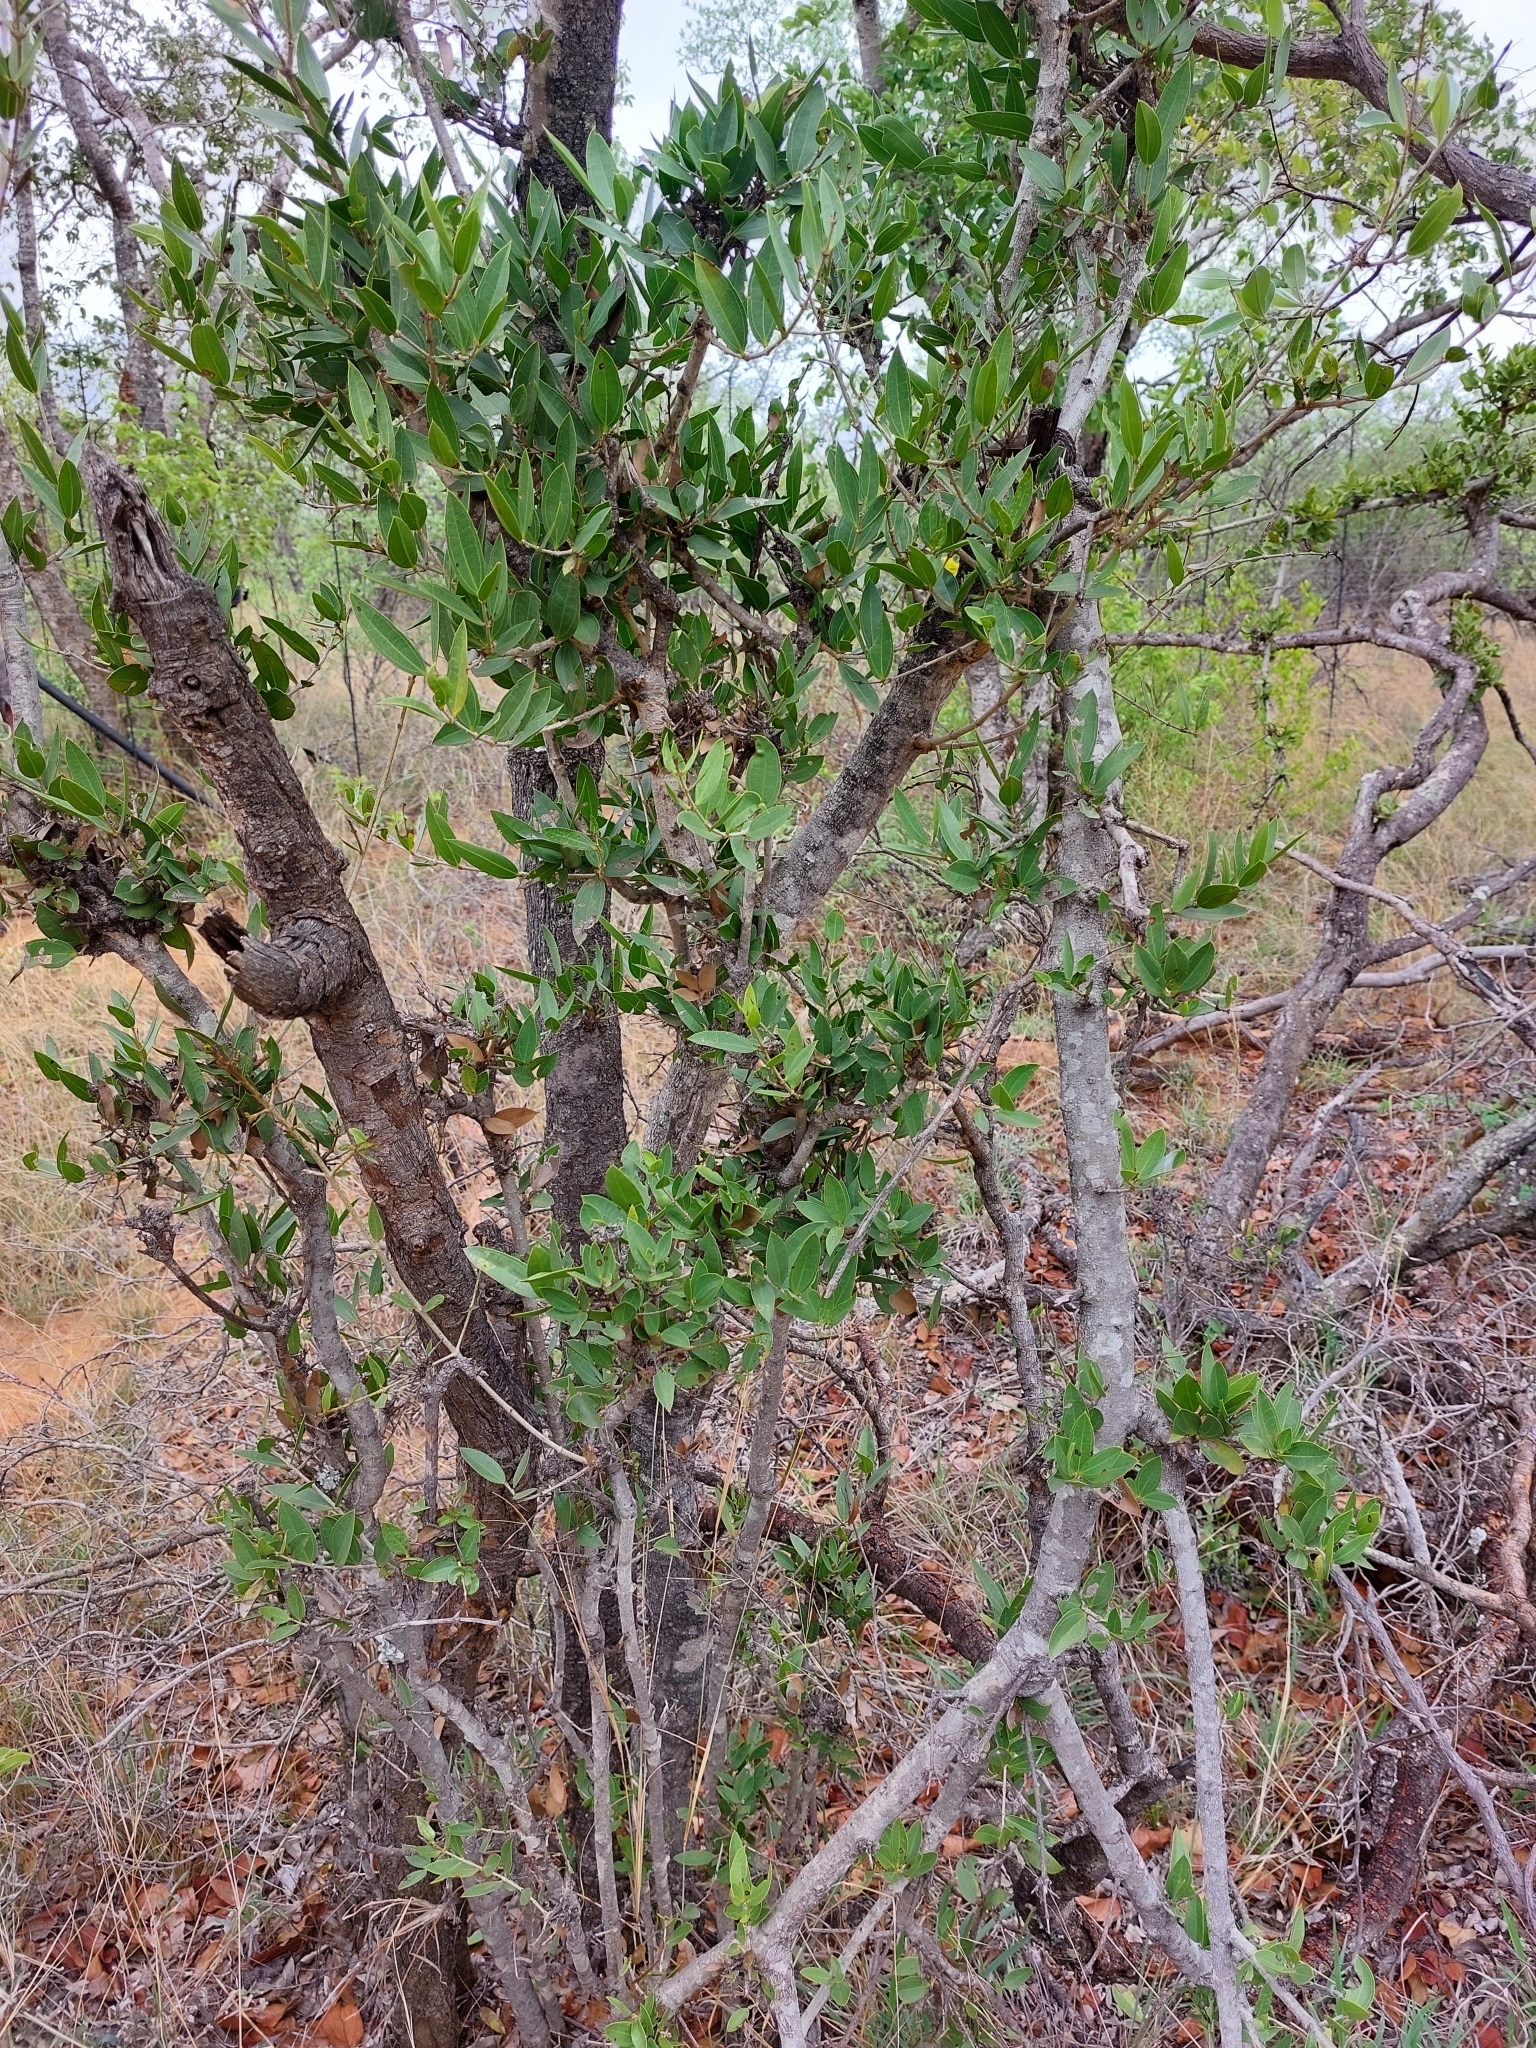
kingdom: Plantae
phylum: Tracheophyta
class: Magnoliopsida
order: Gentianales
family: Loganiaceae
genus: Strychnos
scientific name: Strychnos pungens
